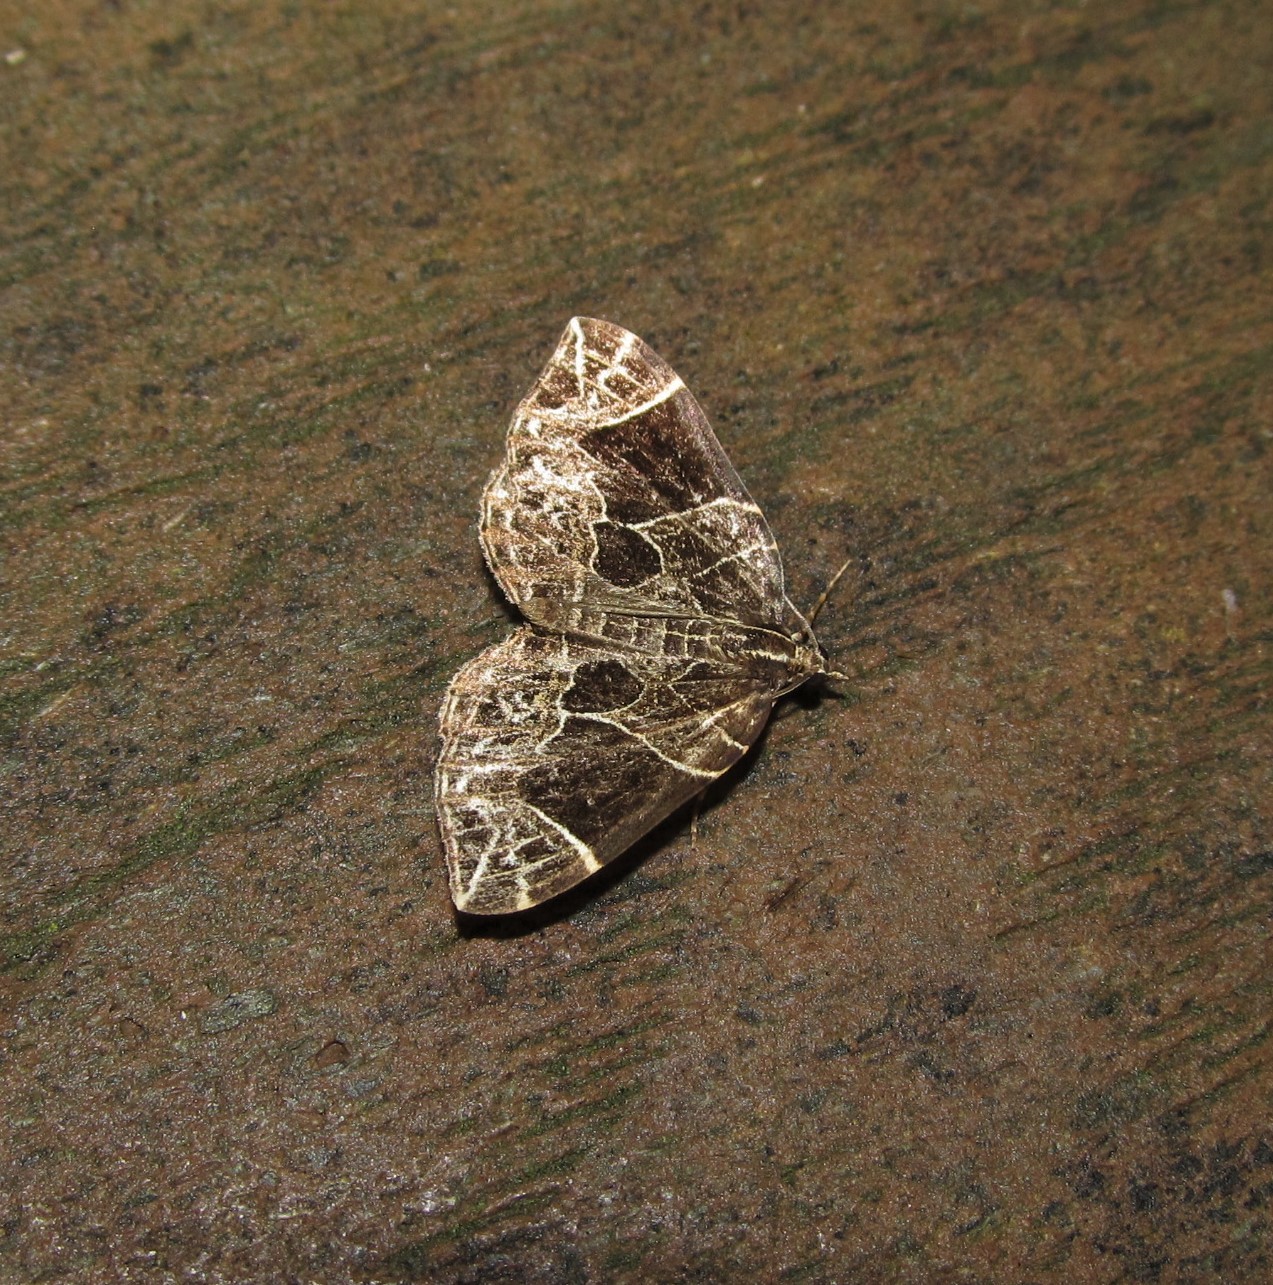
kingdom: Animalia
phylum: Arthropoda
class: Insecta
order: Lepidoptera
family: Geometridae
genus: Ecliptopera
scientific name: Ecliptopera atricolorata
